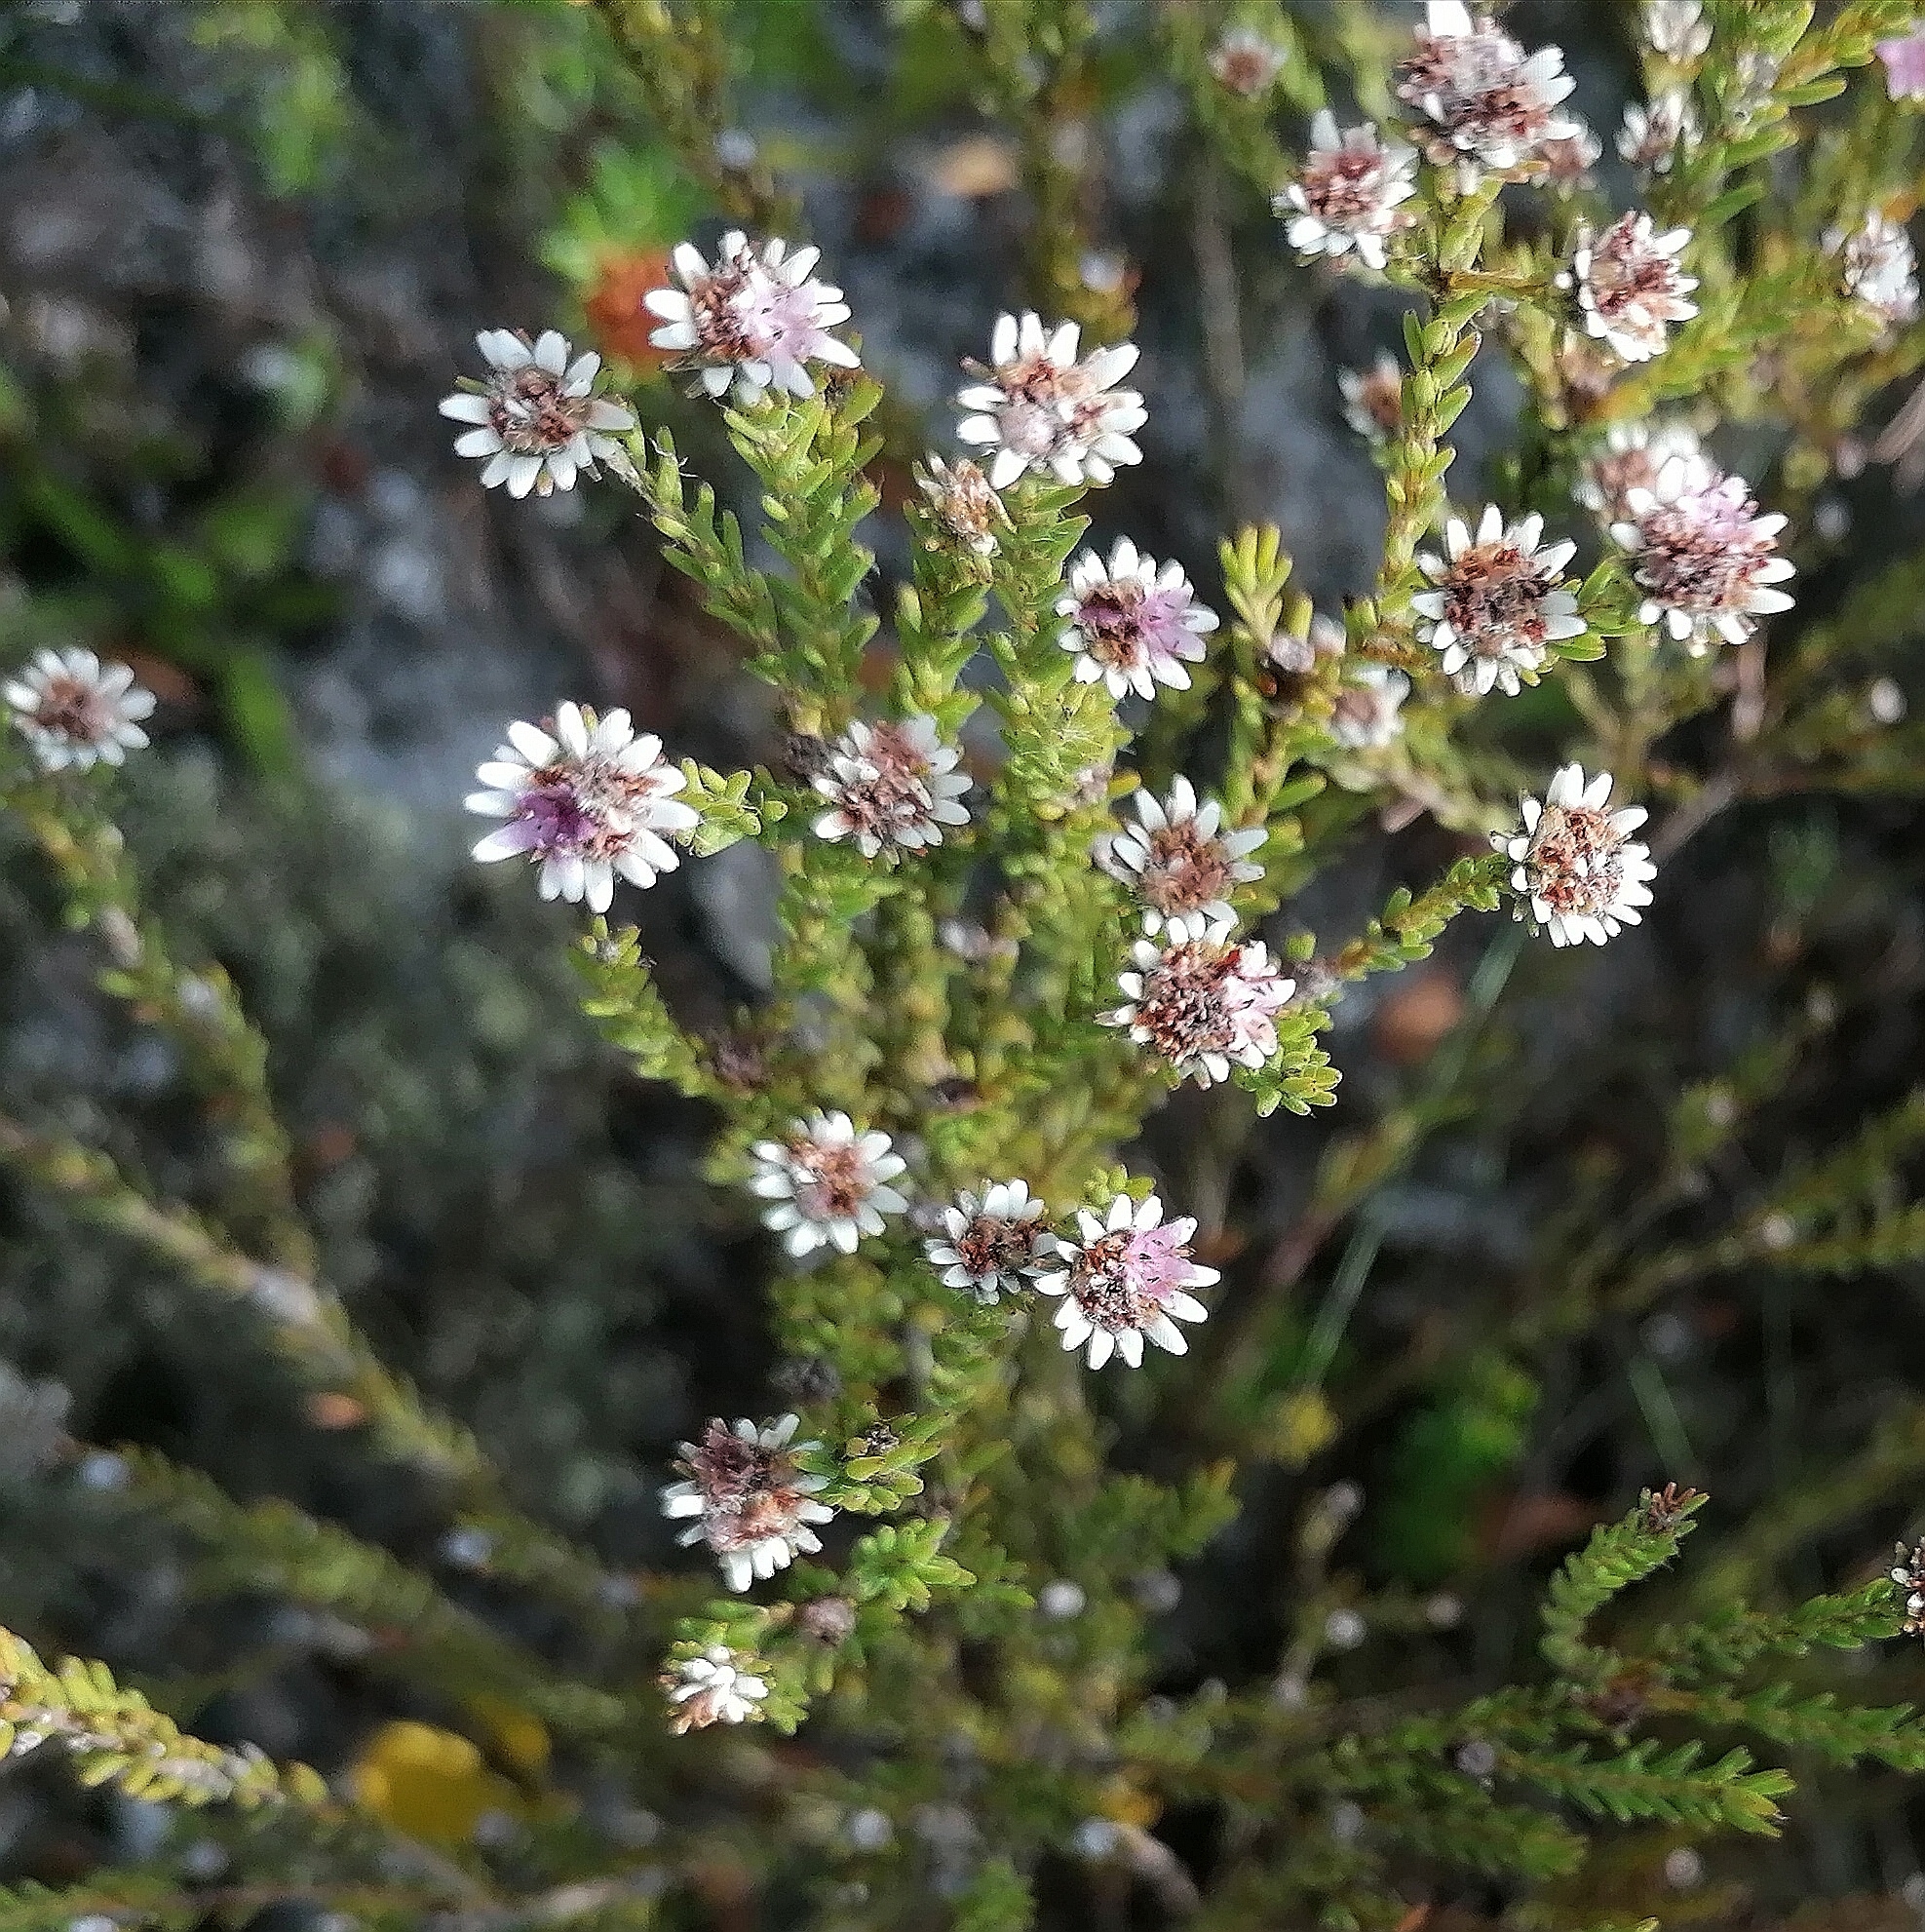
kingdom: Plantae
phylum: Tracheophyta
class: Magnoliopsida
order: Bruniales
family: Bruniaceae
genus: Staavia
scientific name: Staavia radiata
